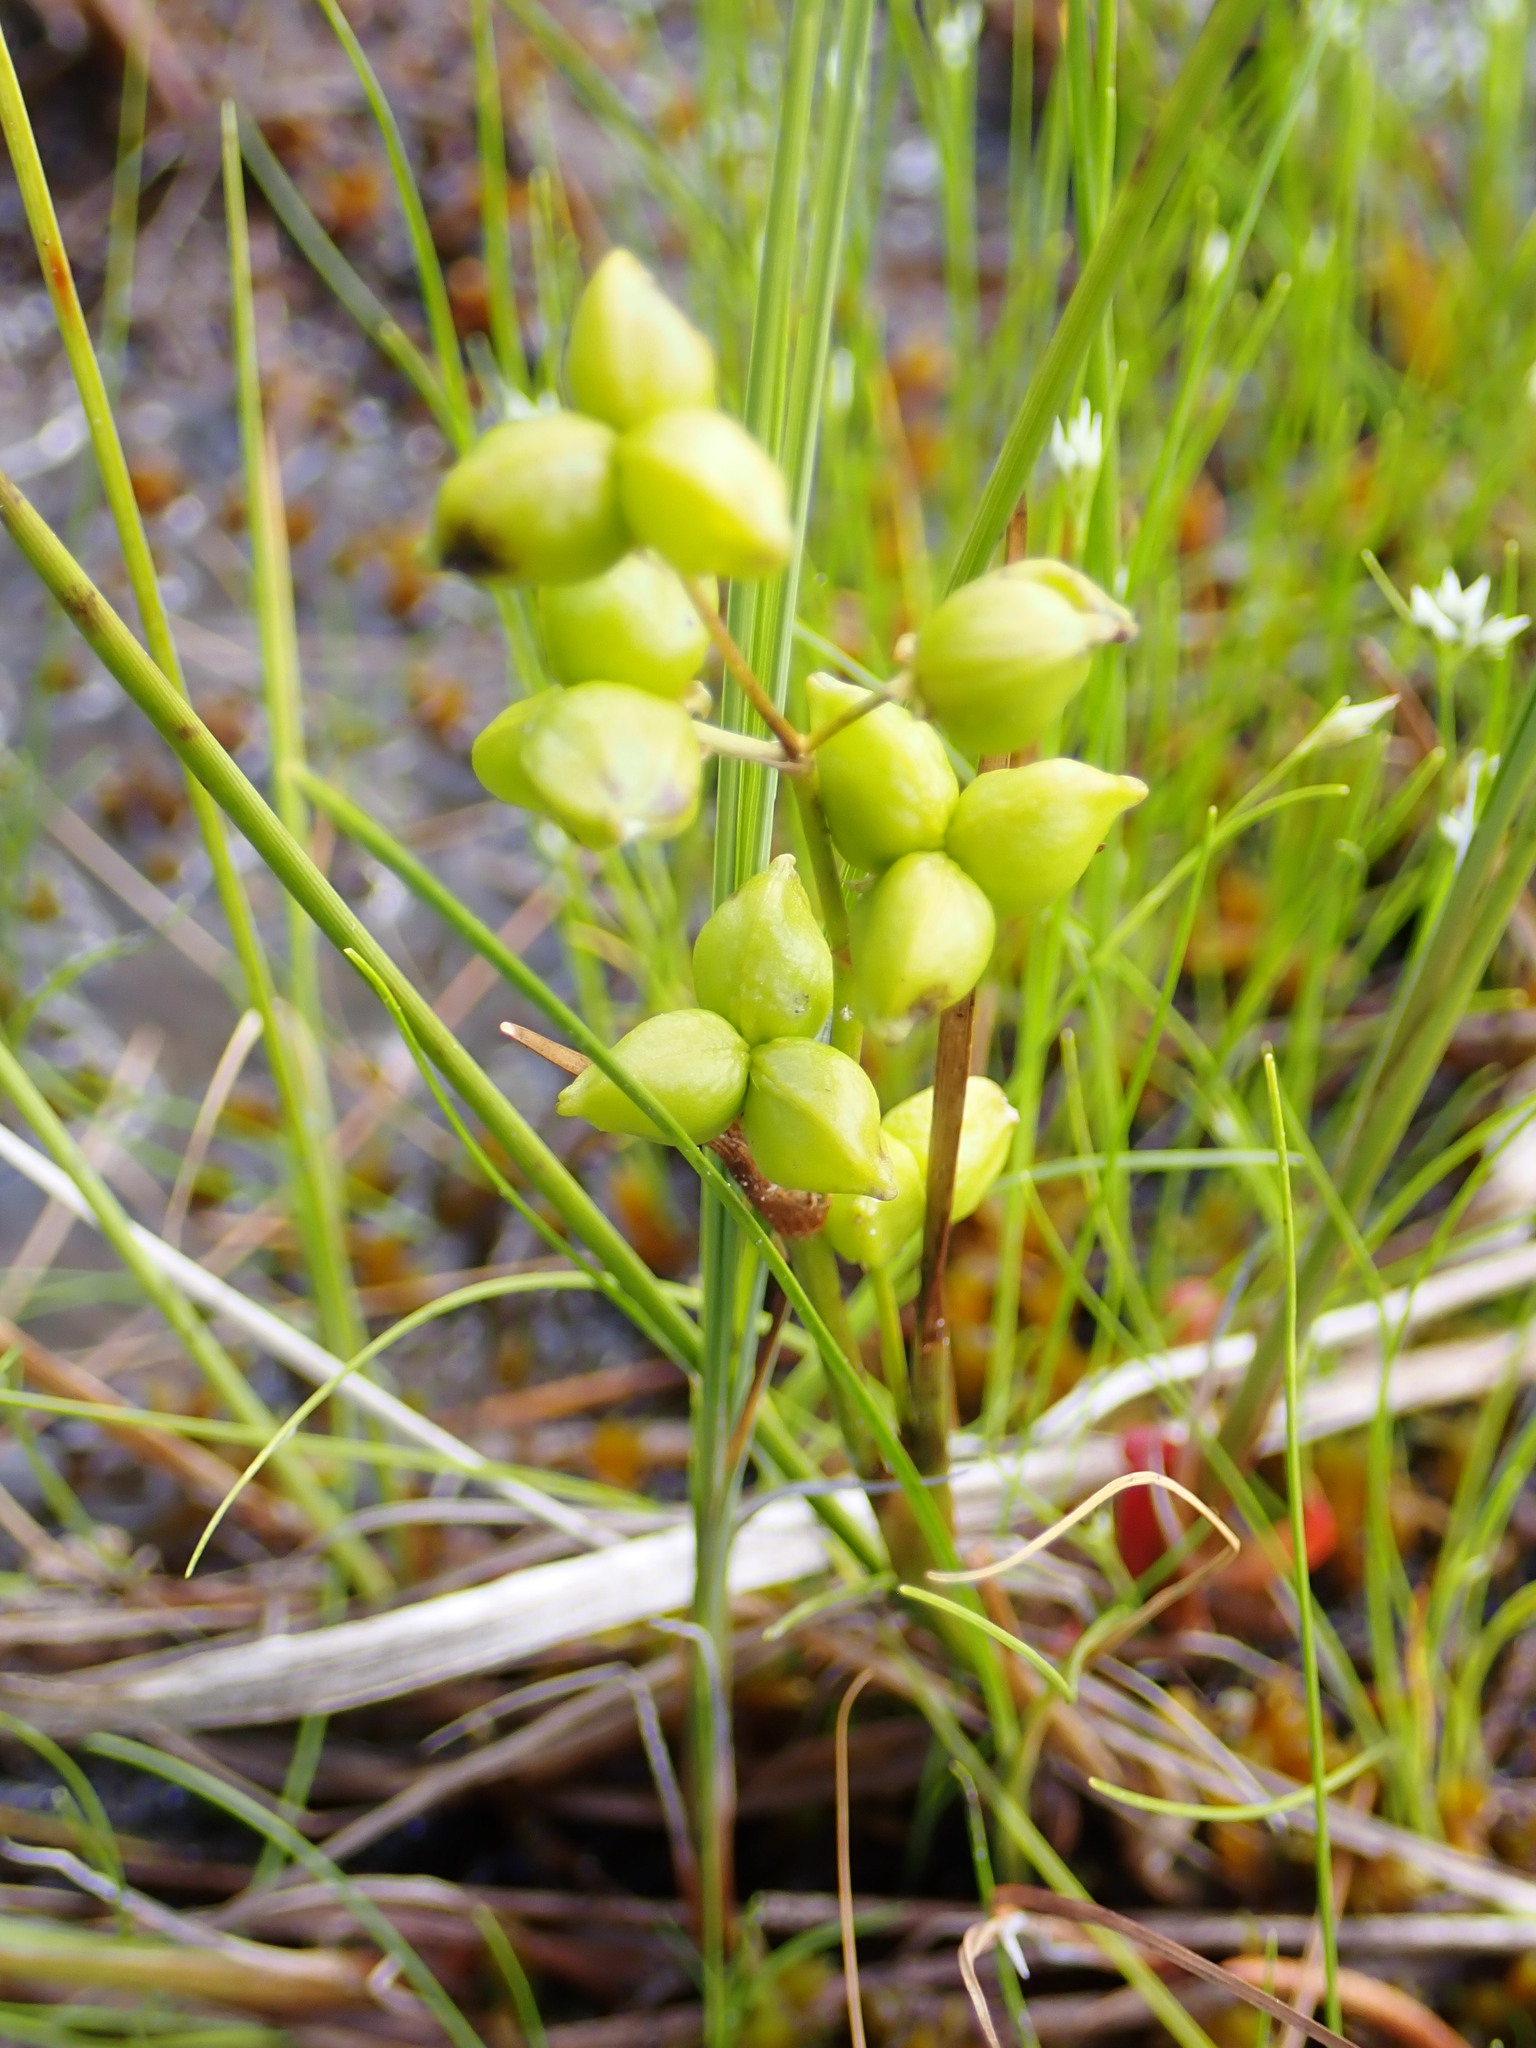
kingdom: Plantae
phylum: Tracheophyta
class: Liliopsida
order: Alismatales
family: Scheuchzeriaceae
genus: Scheuchzeria
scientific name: Scheuchzeria palustris
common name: Rannoch-rush
